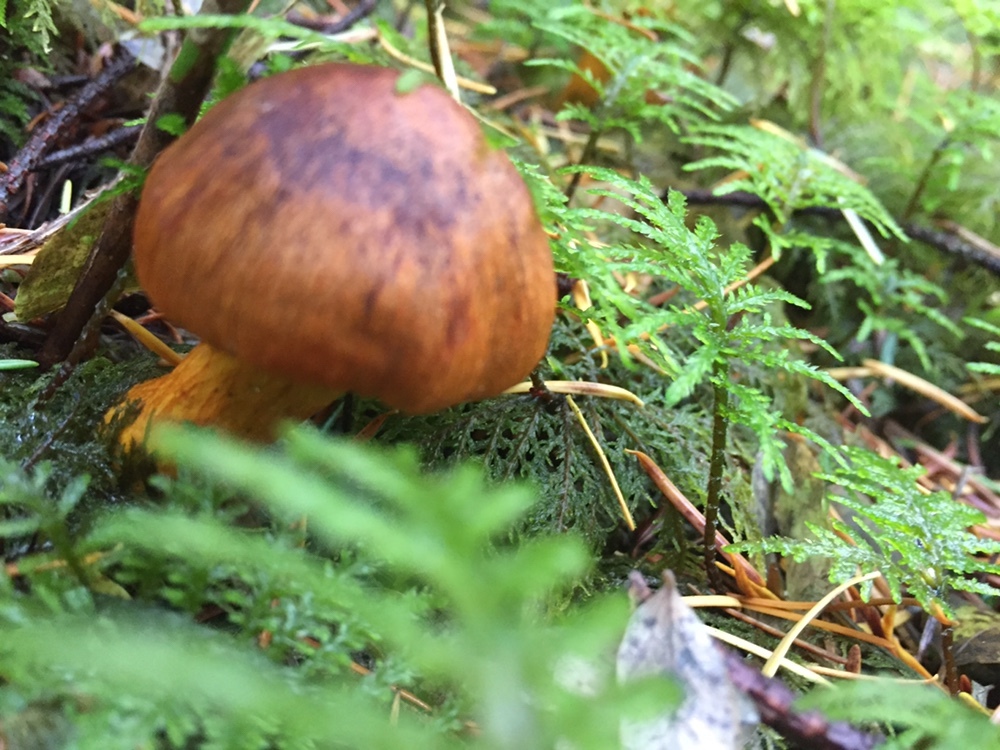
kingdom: Fungi
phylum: Basidiomycota
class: Agaricomycetes
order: Agaricales
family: Cortinariaceae
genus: Cortinarius
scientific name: Cortinarius semisanguineus
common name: Surprise webcap
